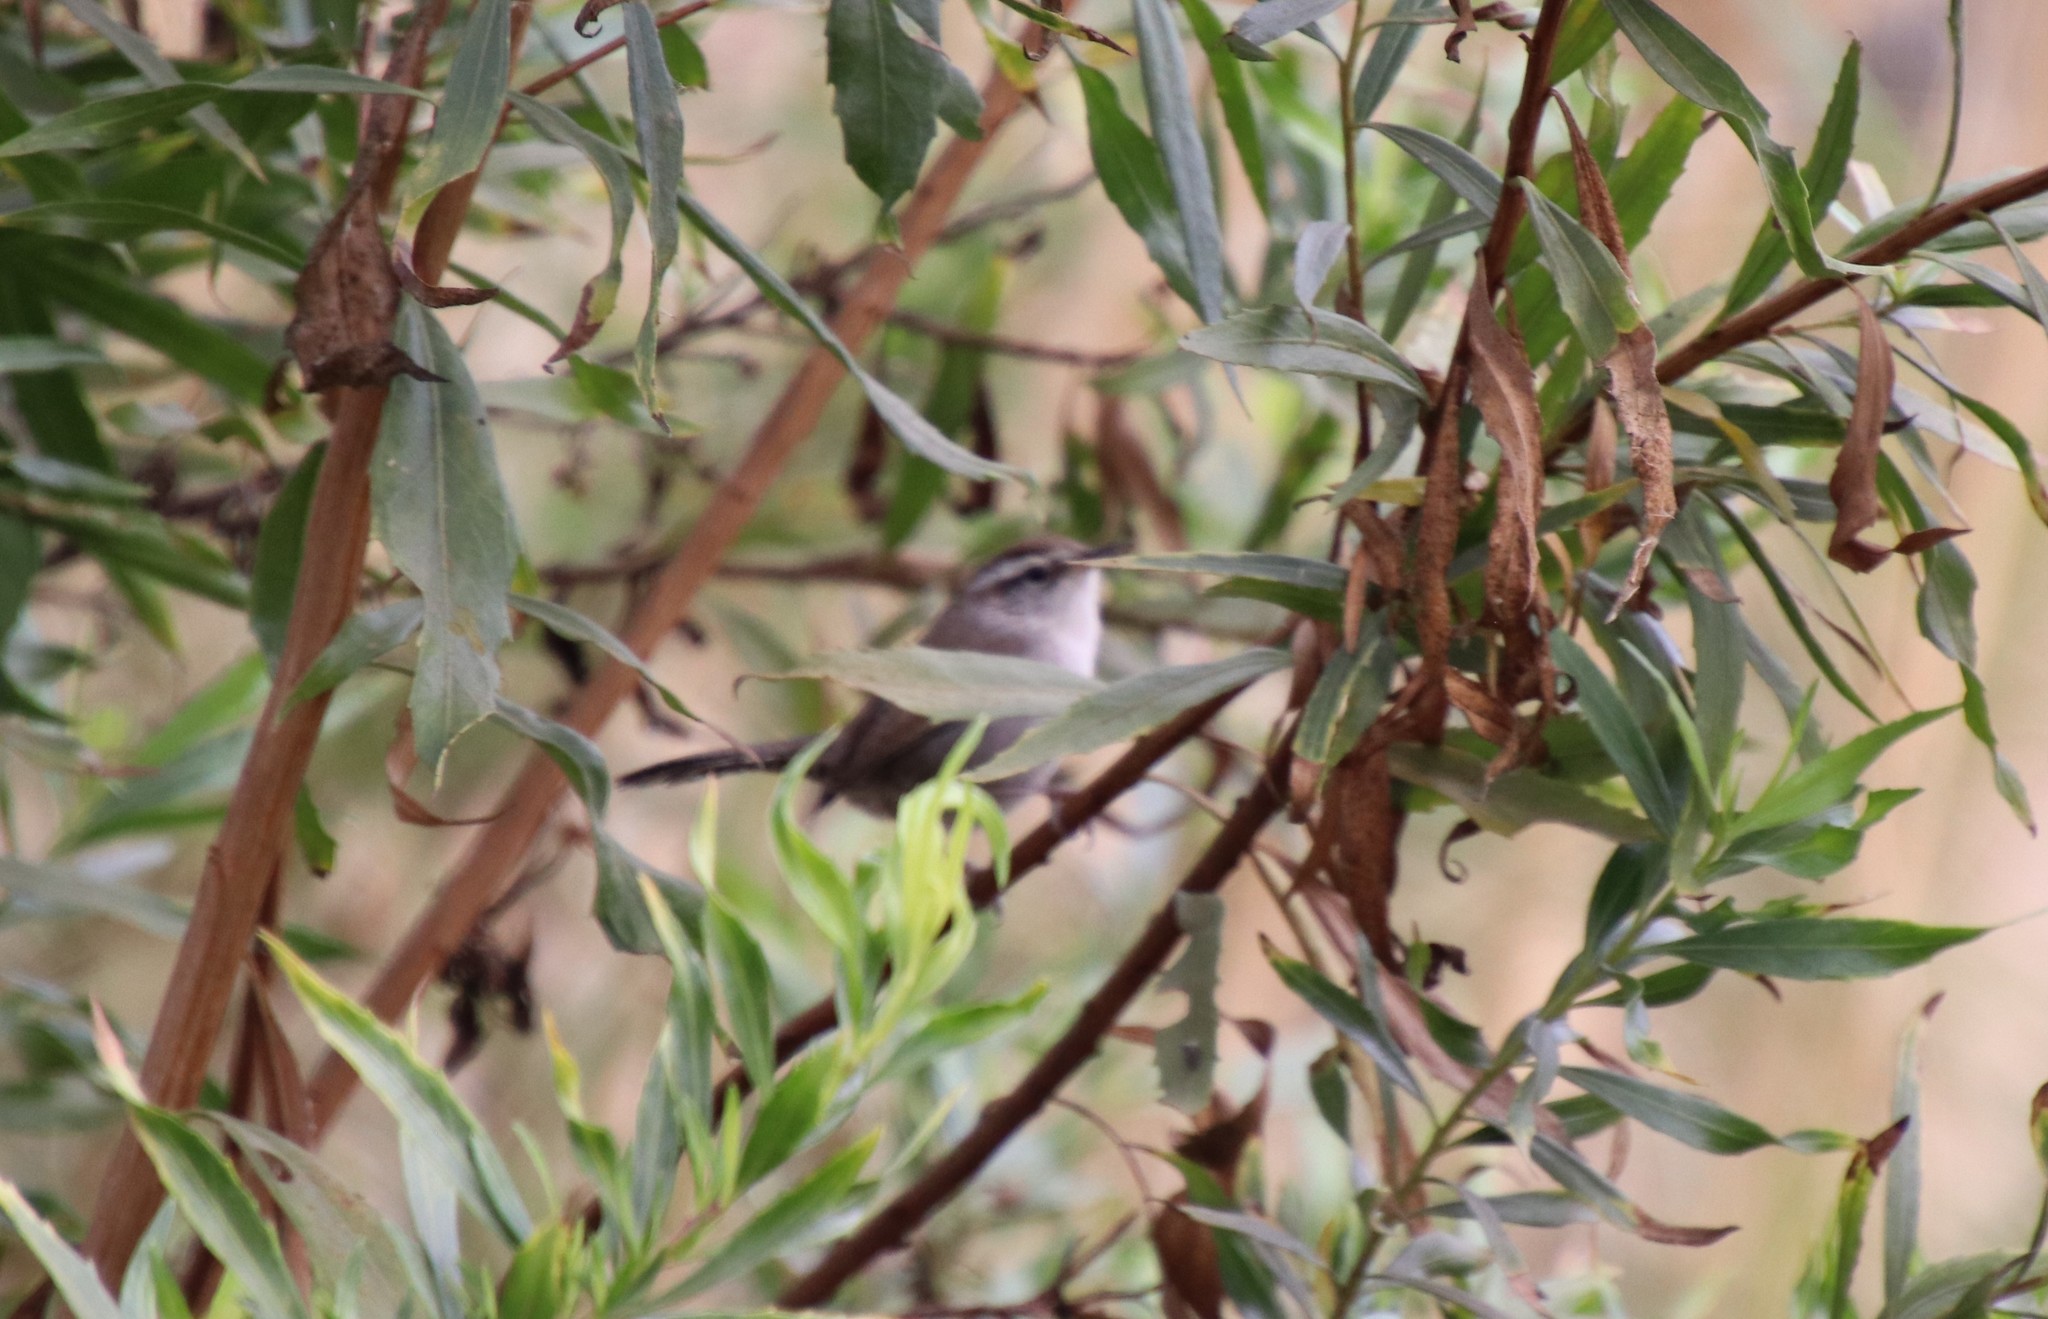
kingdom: Animalia
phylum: Chordata
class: Aves
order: Passeriformes
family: Troglodytidae
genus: Thryomanes
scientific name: Thryomanes bewickii
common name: Bewick's wren
